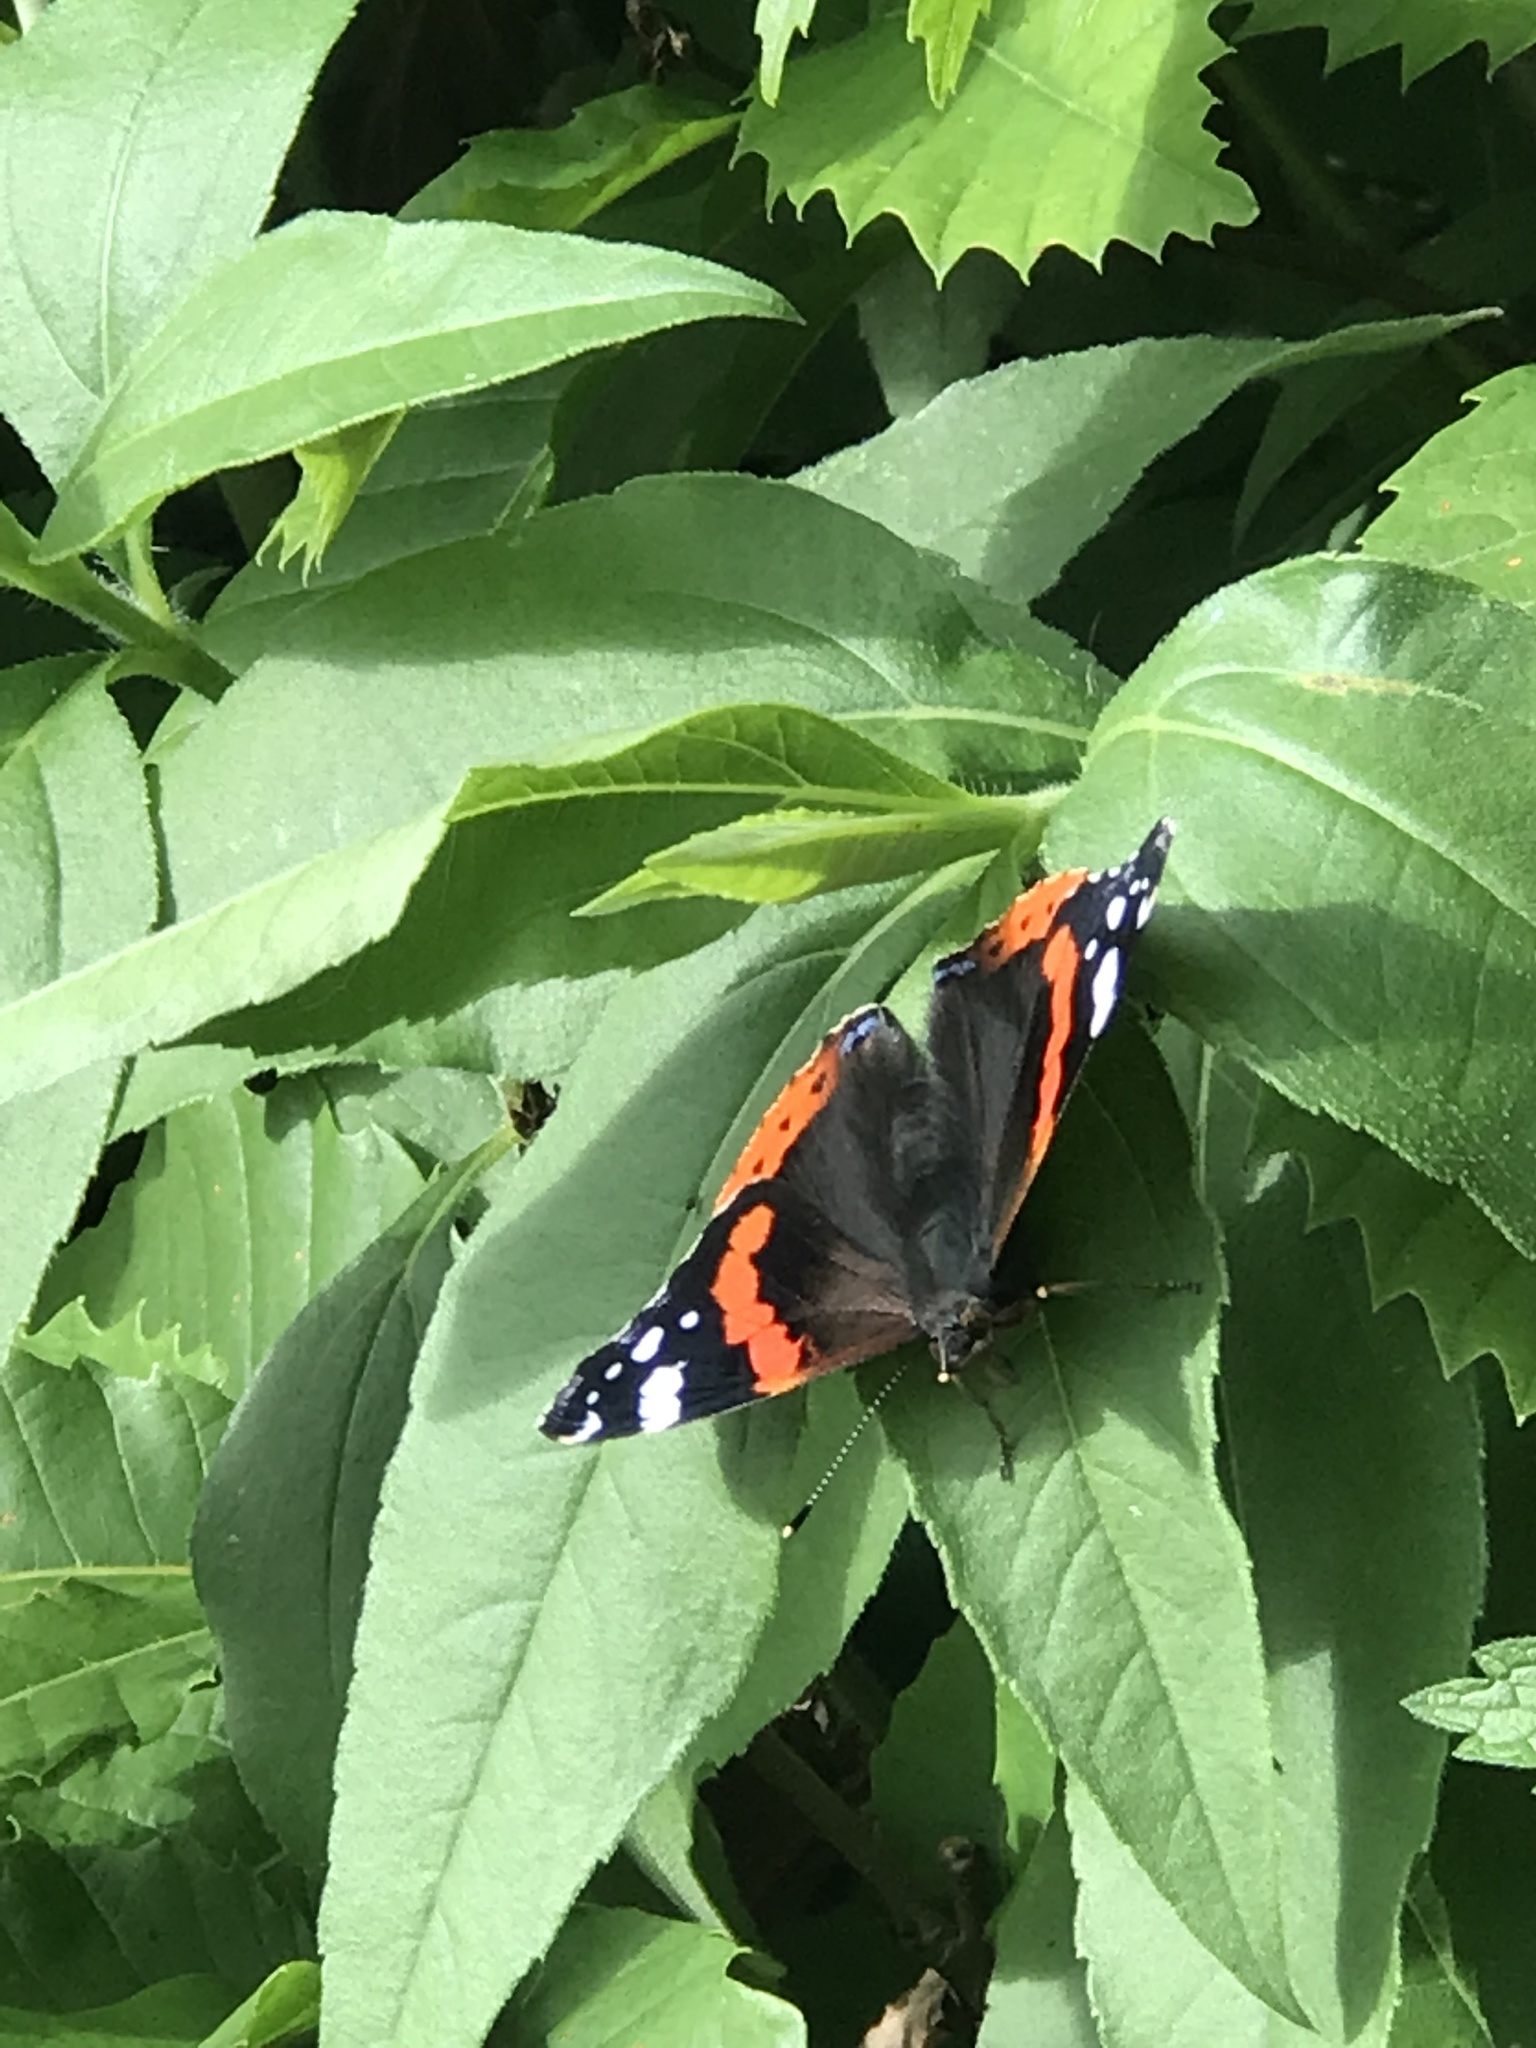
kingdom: Animalia
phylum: Arthropoda
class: Insecta
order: Lepidoptera
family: Nymphalidae
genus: Vanessa
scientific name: Vanessa atalanta
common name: Red admiral
